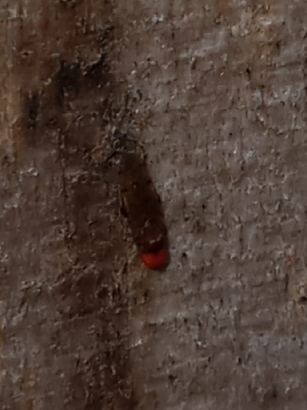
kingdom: Animalia
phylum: Arthropoda
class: Insecta
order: Diptera
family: Hybotidae
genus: Syneches
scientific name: Syneches simplex
